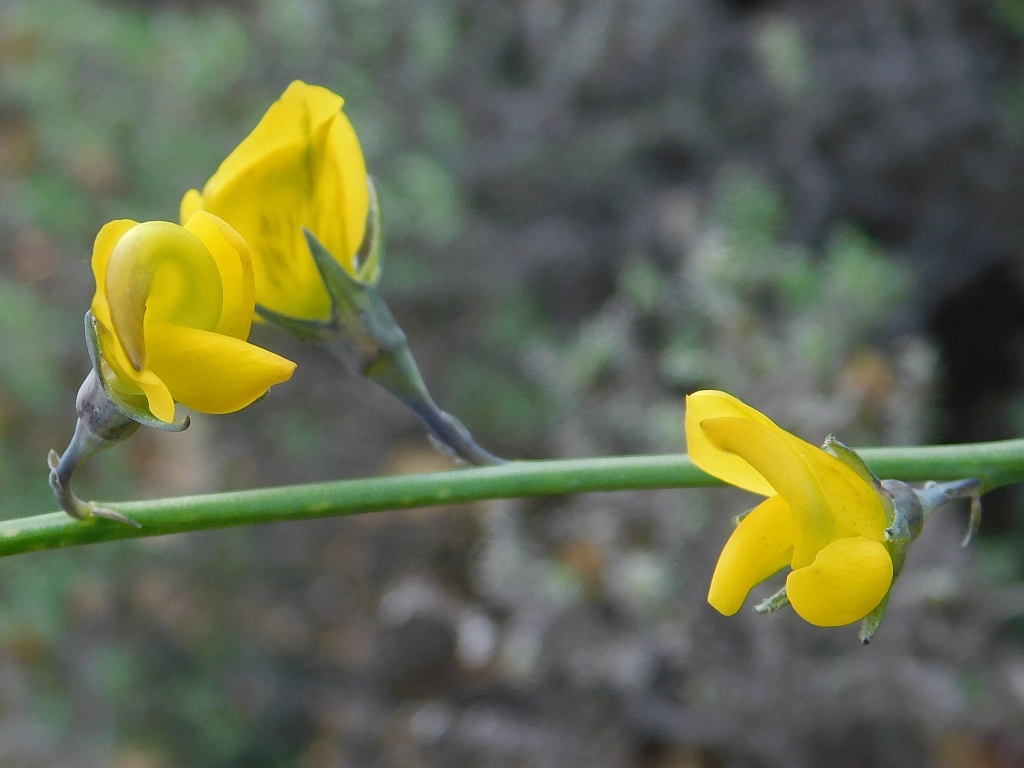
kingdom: Plantae
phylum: Tracheophyta
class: Magnoliopsida
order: Fabales
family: Fabaceae
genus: Lebeckia
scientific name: Lebeckia pauciflora
